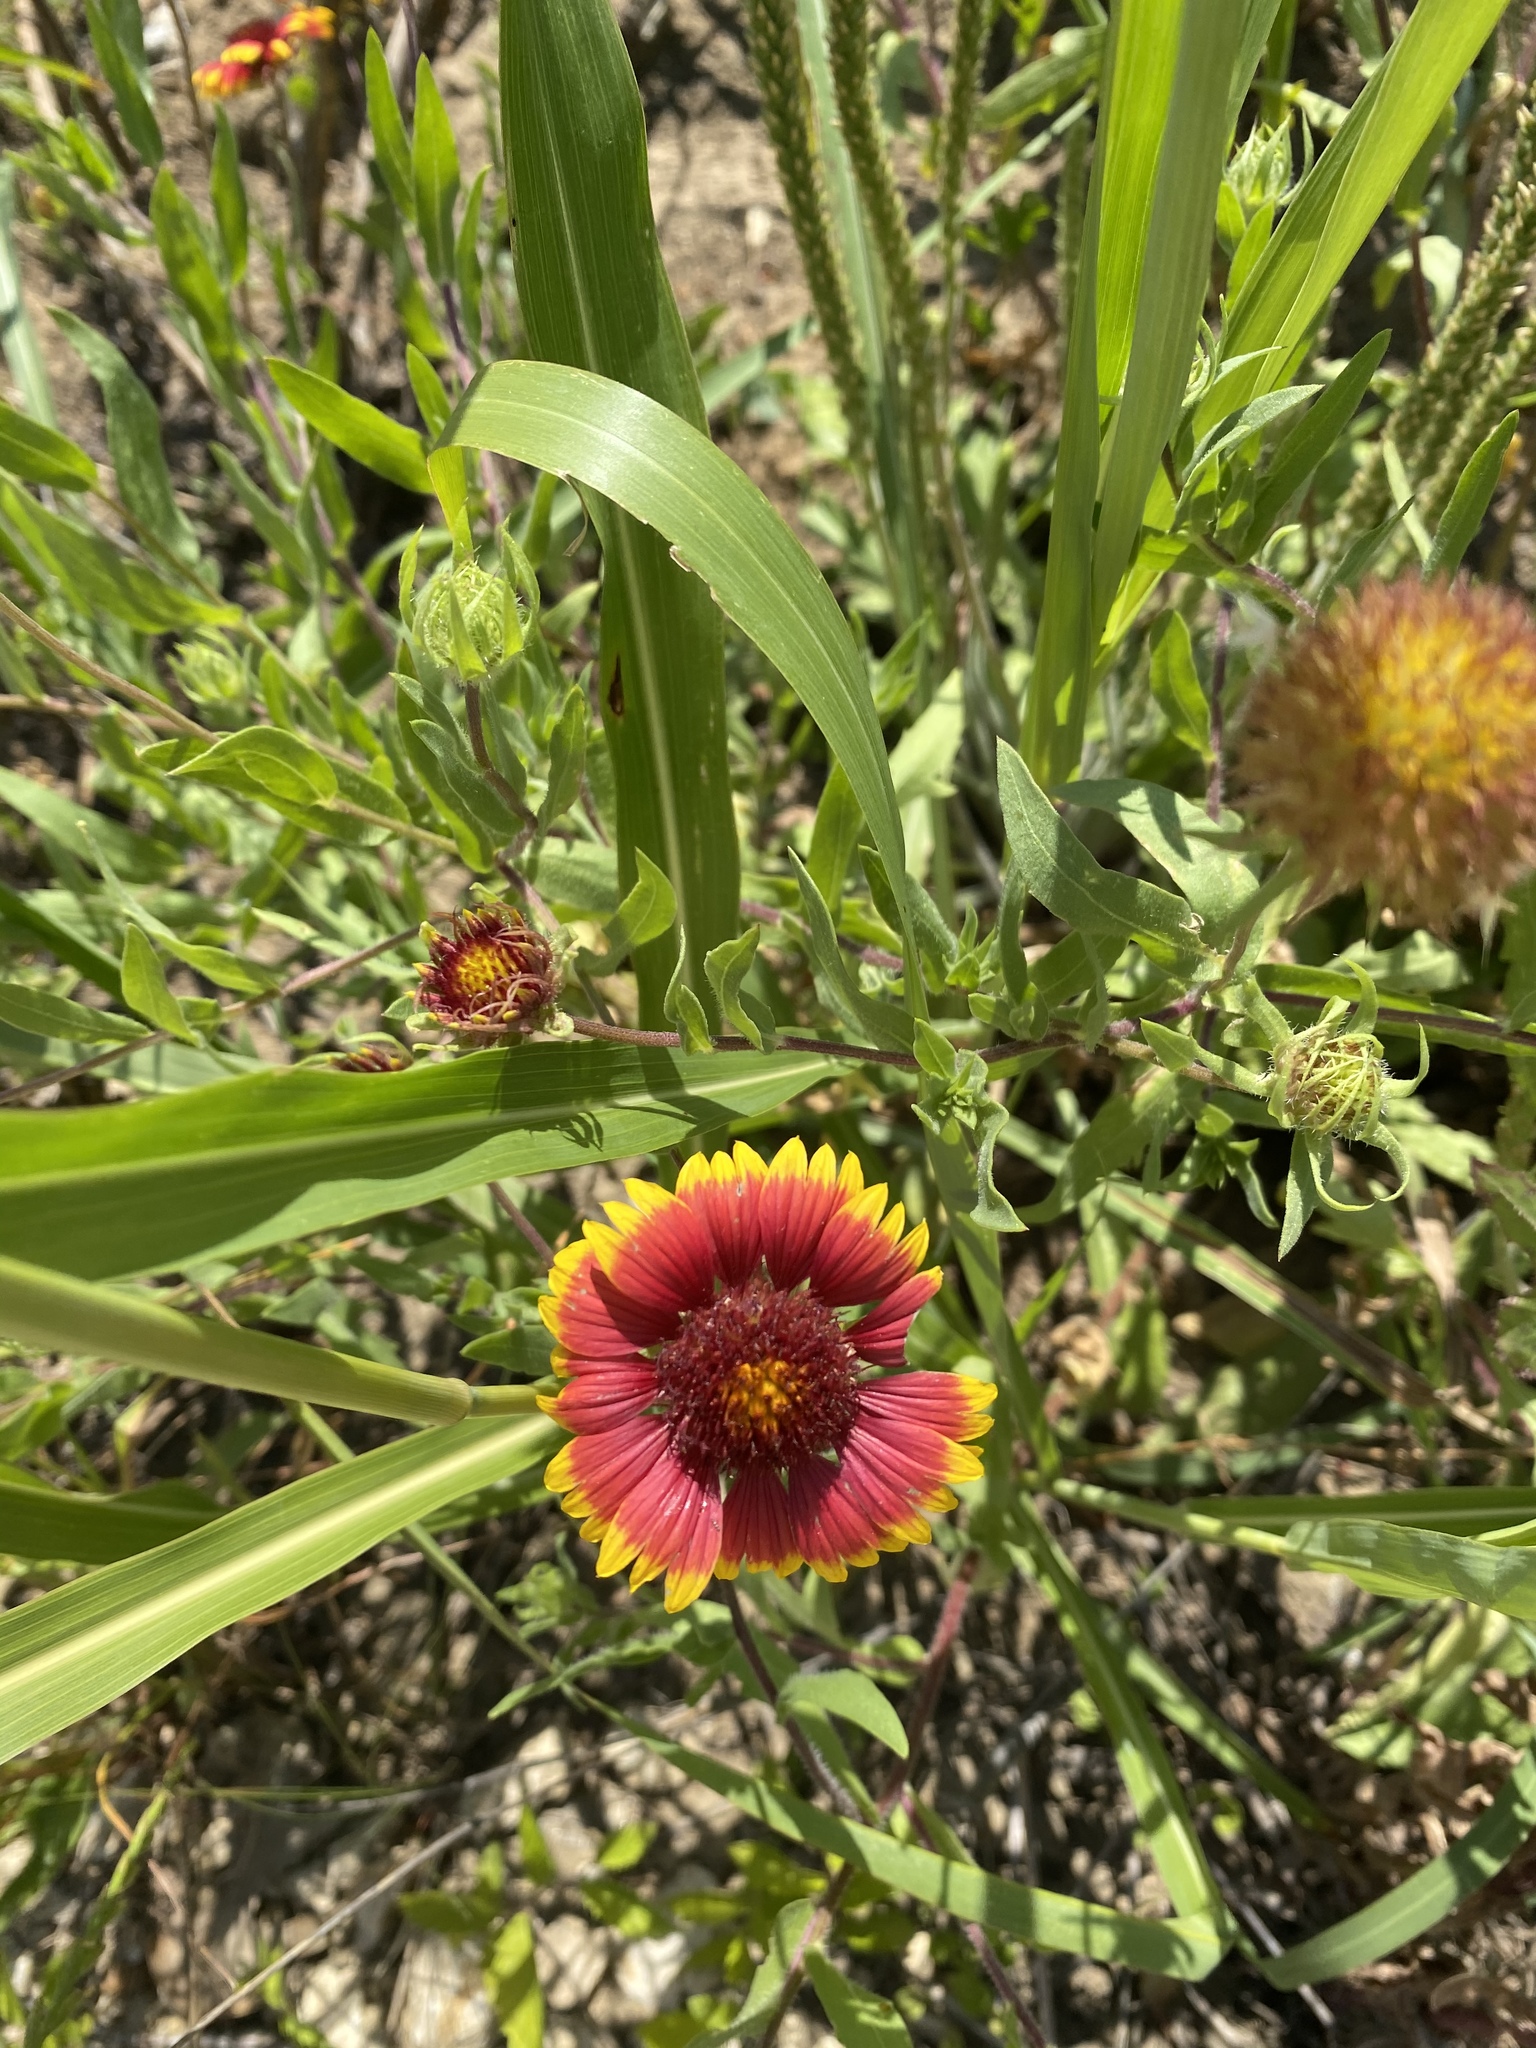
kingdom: Plantae
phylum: Tracheophyta
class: Magnoliopsida
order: Asterales
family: Asteraceae
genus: Gaillardia
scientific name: Gaillardia pulchella
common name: Firewheel
